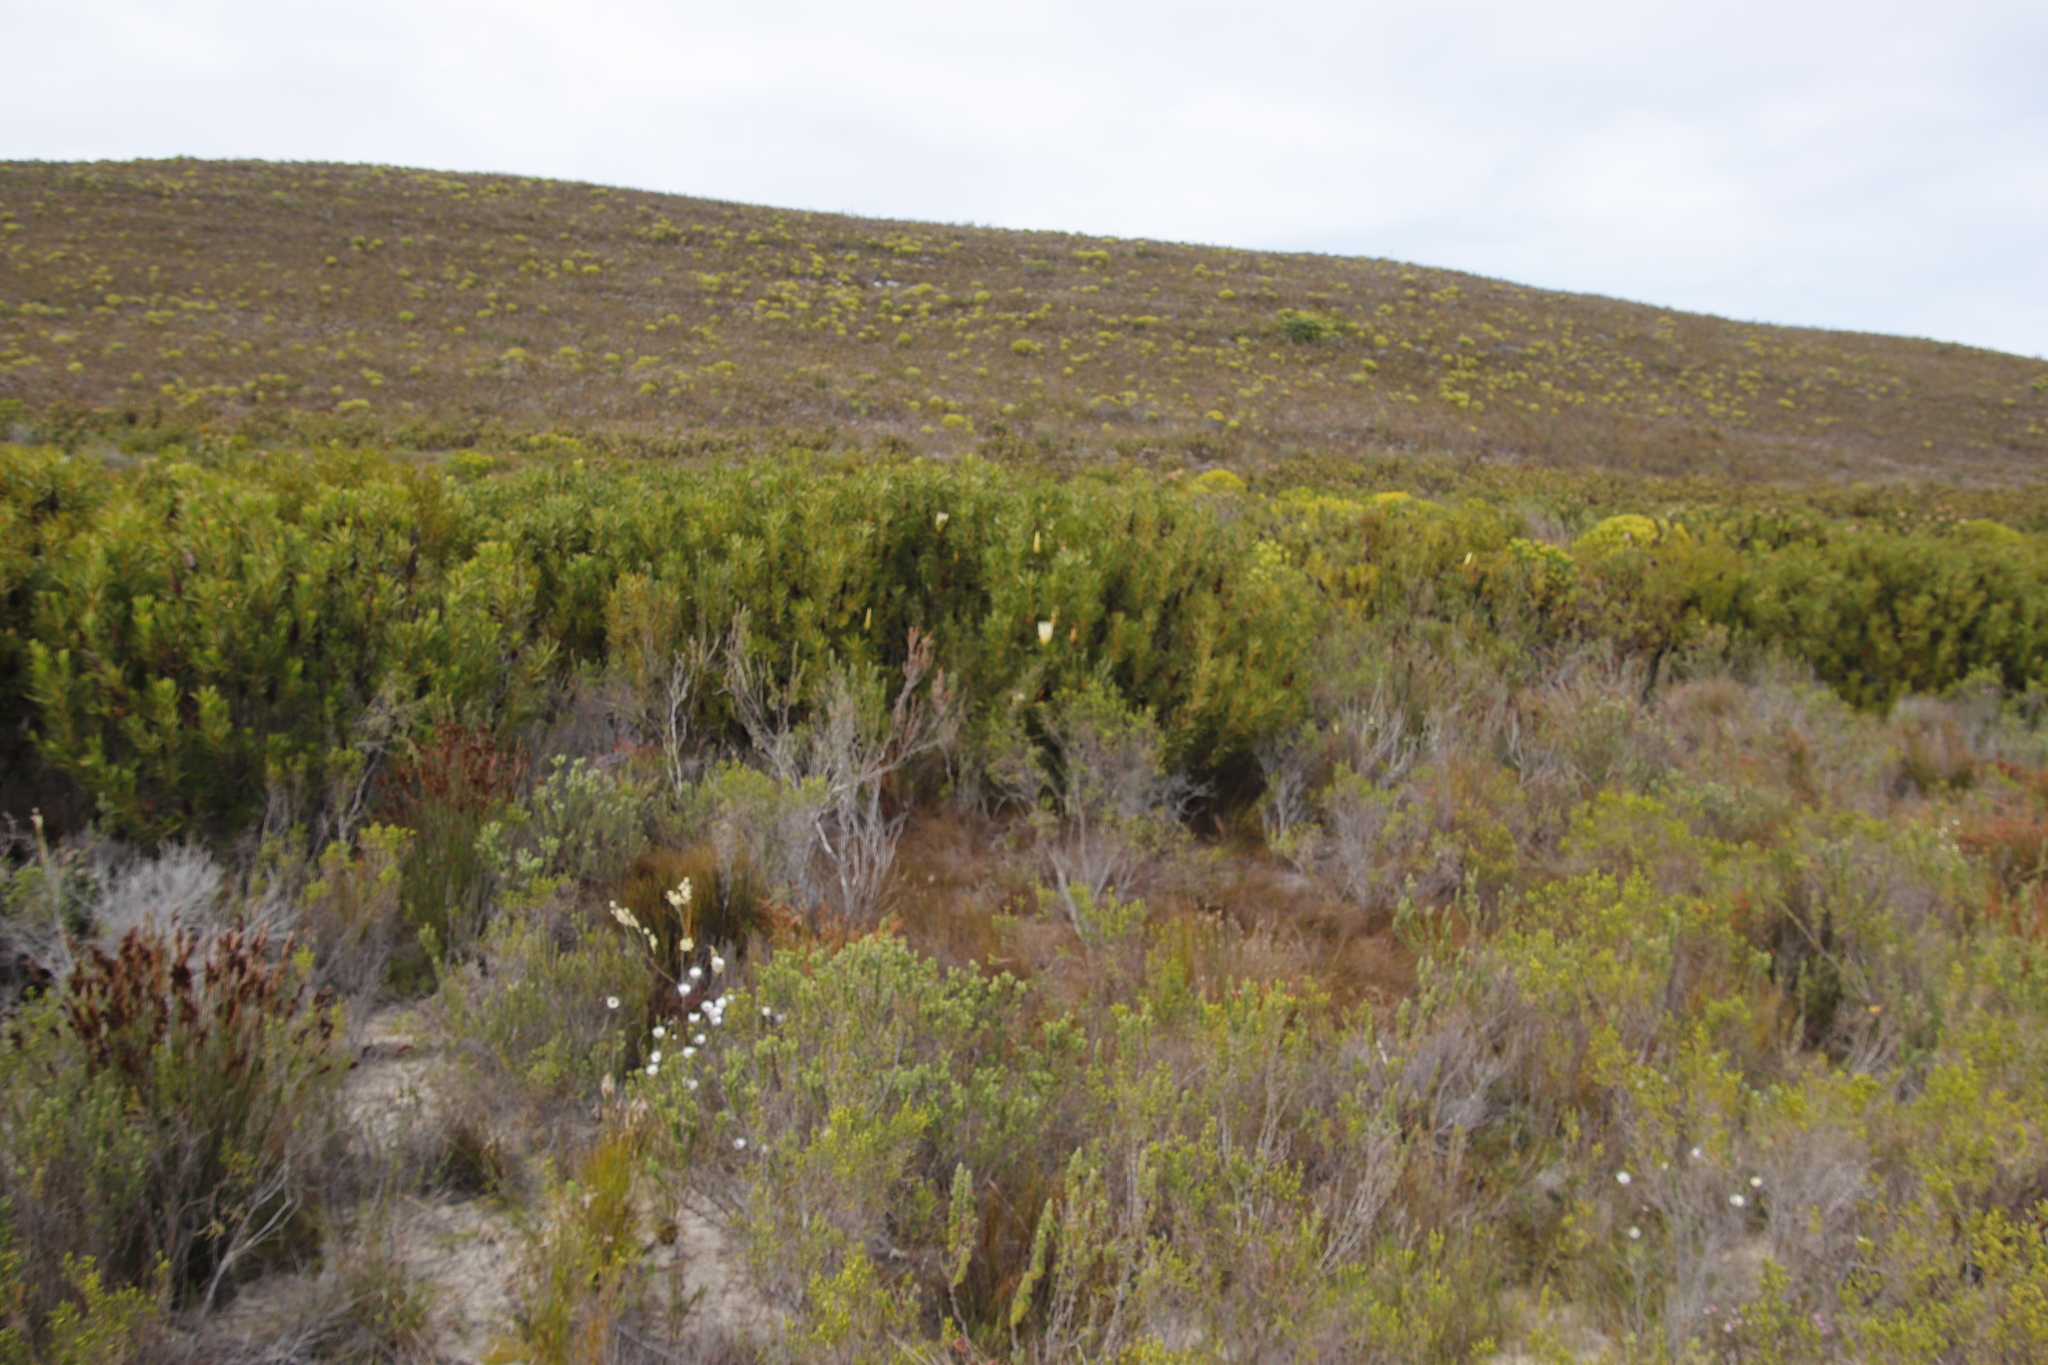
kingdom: Plantae
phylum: Tracheophyta
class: Magnoliopsida
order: Proteales
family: Proteaceae
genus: Protea
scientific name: Protea repens
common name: Sugarbush
